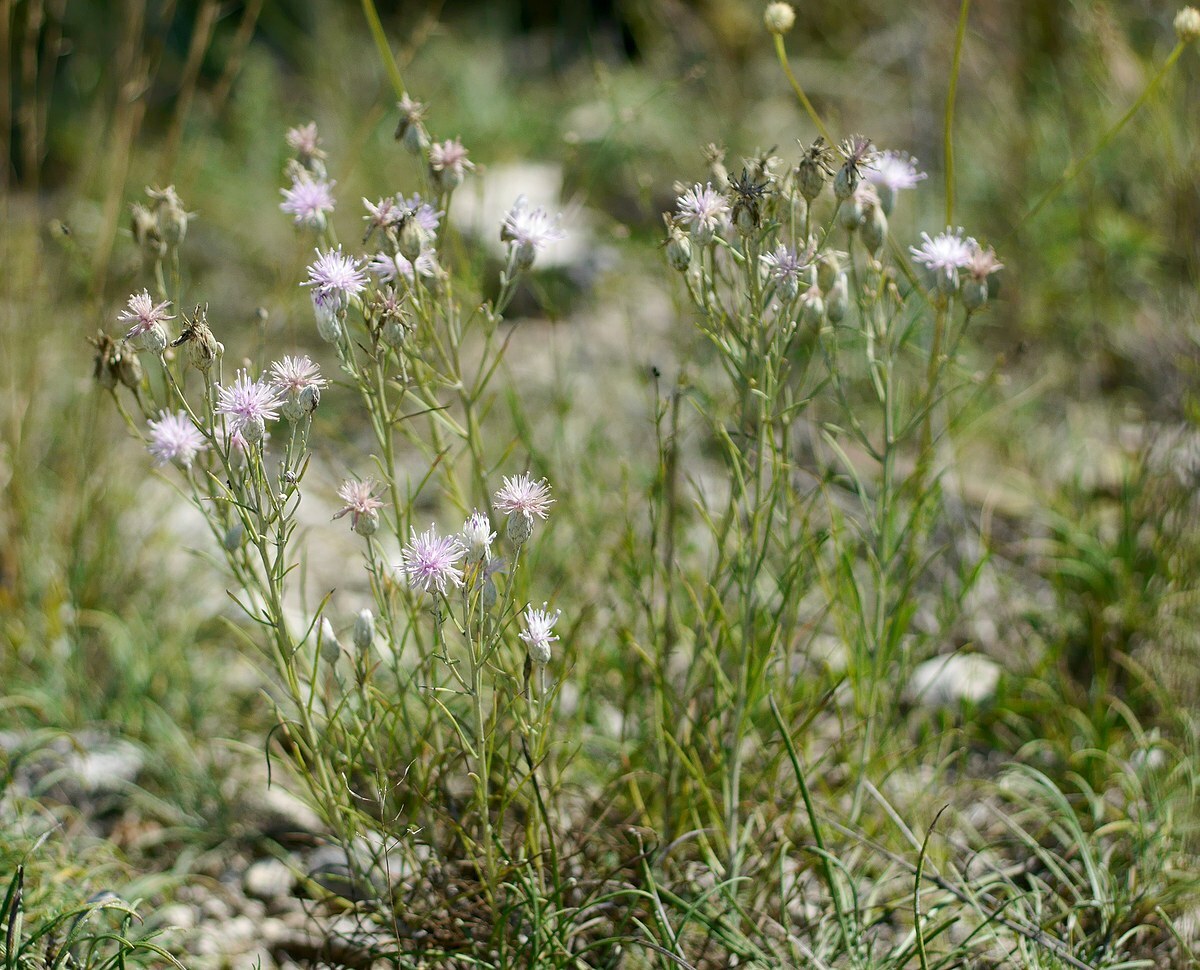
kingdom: Plantae
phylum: Tracheophyta
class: Magnoliopsida
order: Asterales
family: Asteraceae
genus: Jurinea
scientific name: Jurinea stoechadifolia
